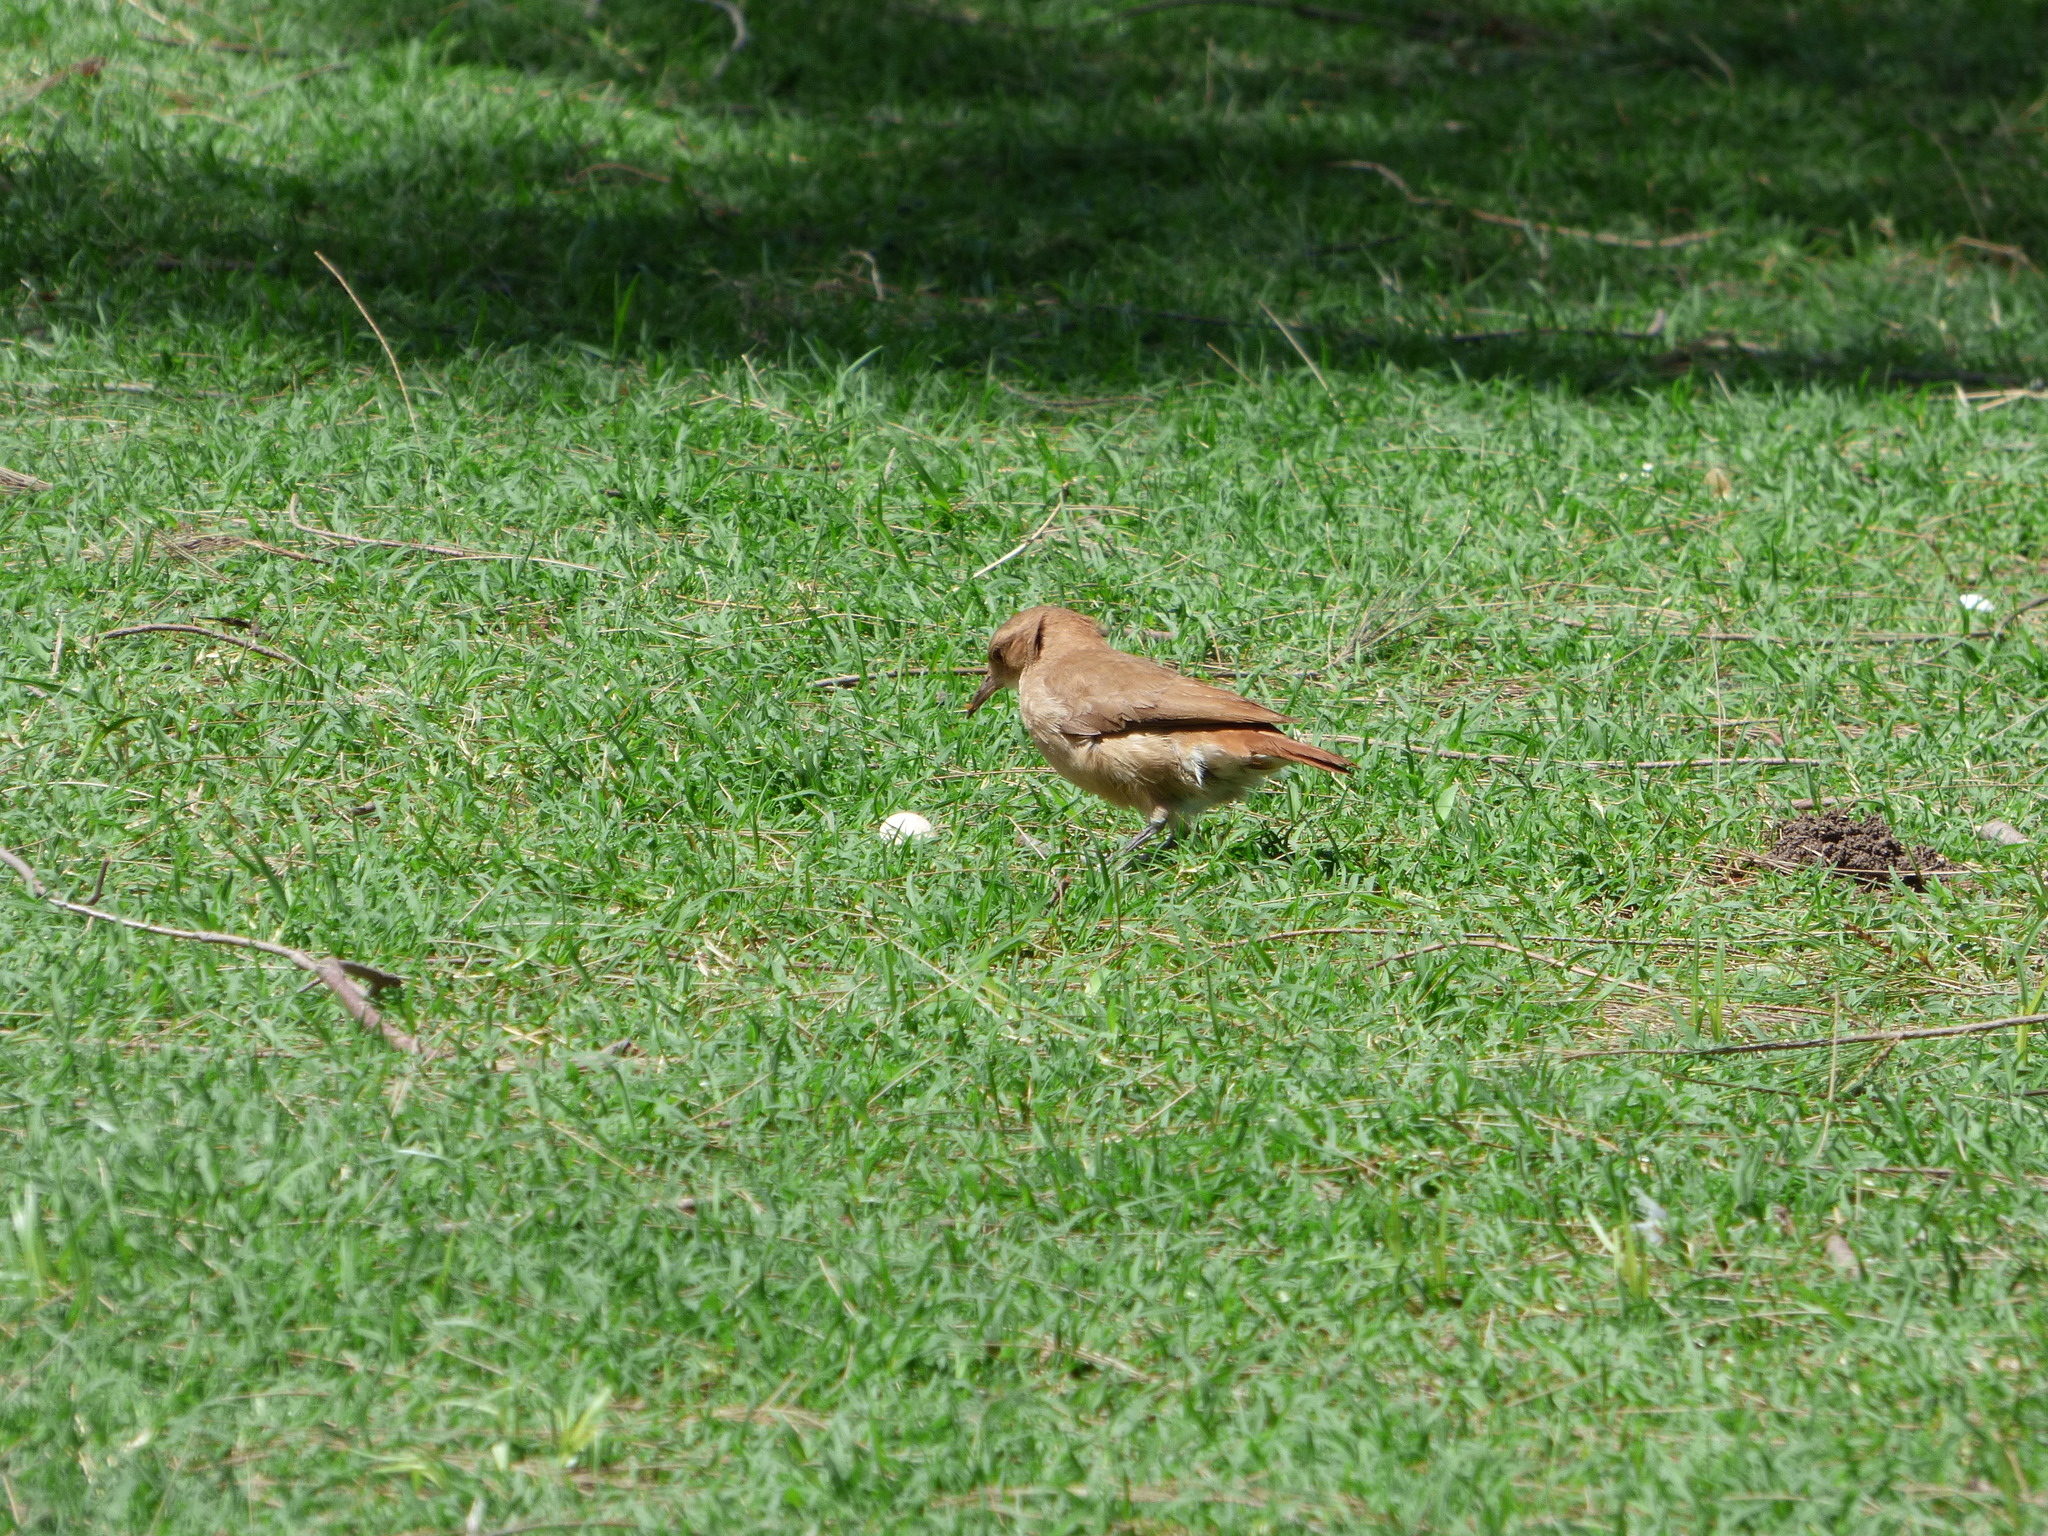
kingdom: Animalia
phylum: Chordata
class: Aves
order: Passeriformes
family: Furnariidae
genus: Furnarius
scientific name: Furnarius rufus
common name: Rufous hornero
